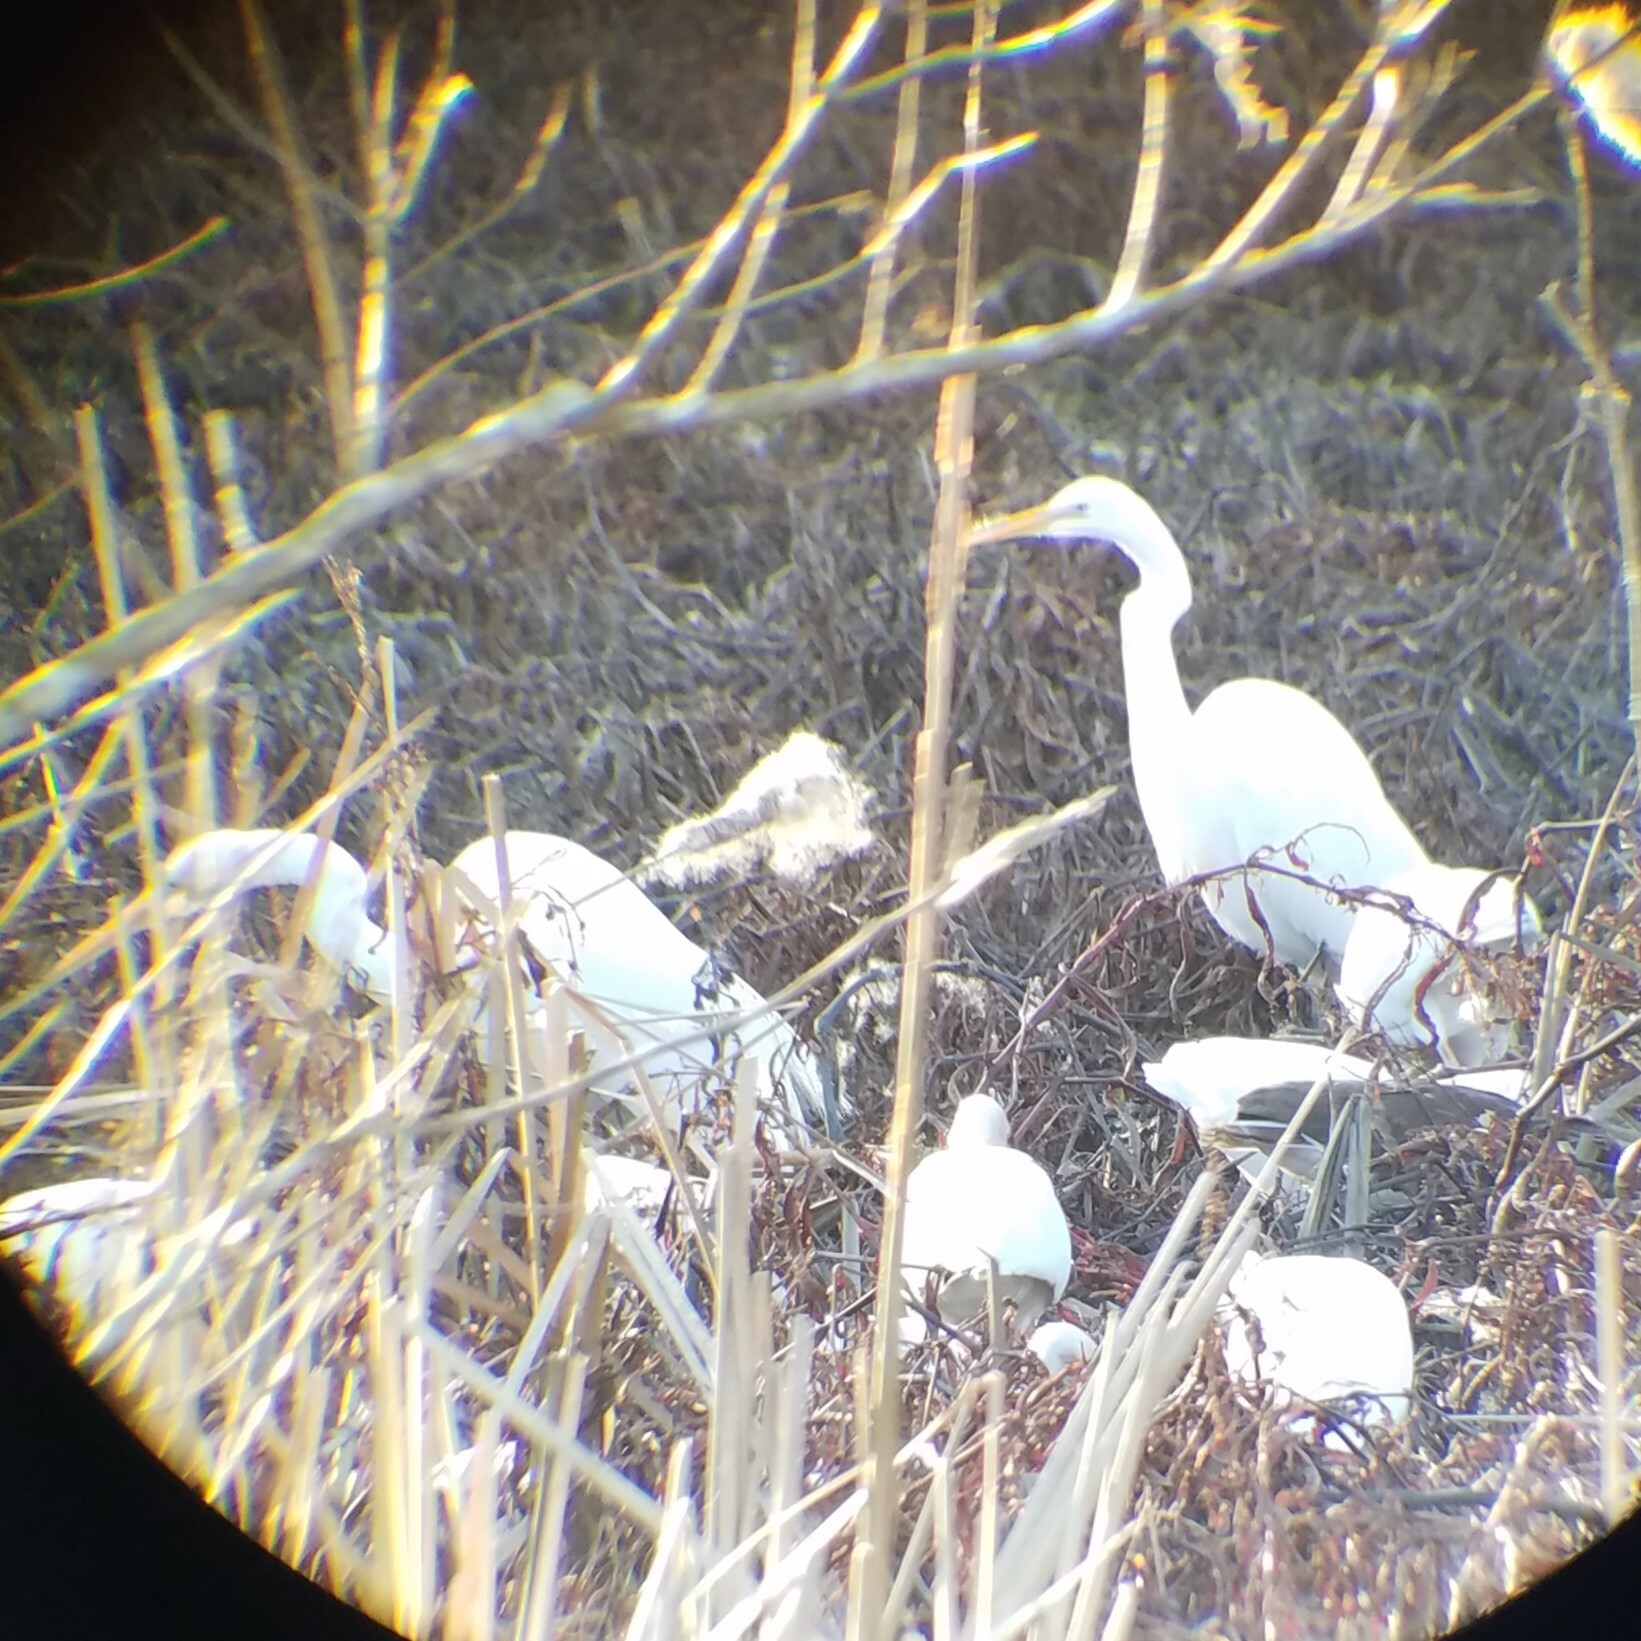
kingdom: Animalia
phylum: Chordata
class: Aves
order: Pelecaniformes
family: Ardeidae
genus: Ardea
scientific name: Ardea alba
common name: Great egret
